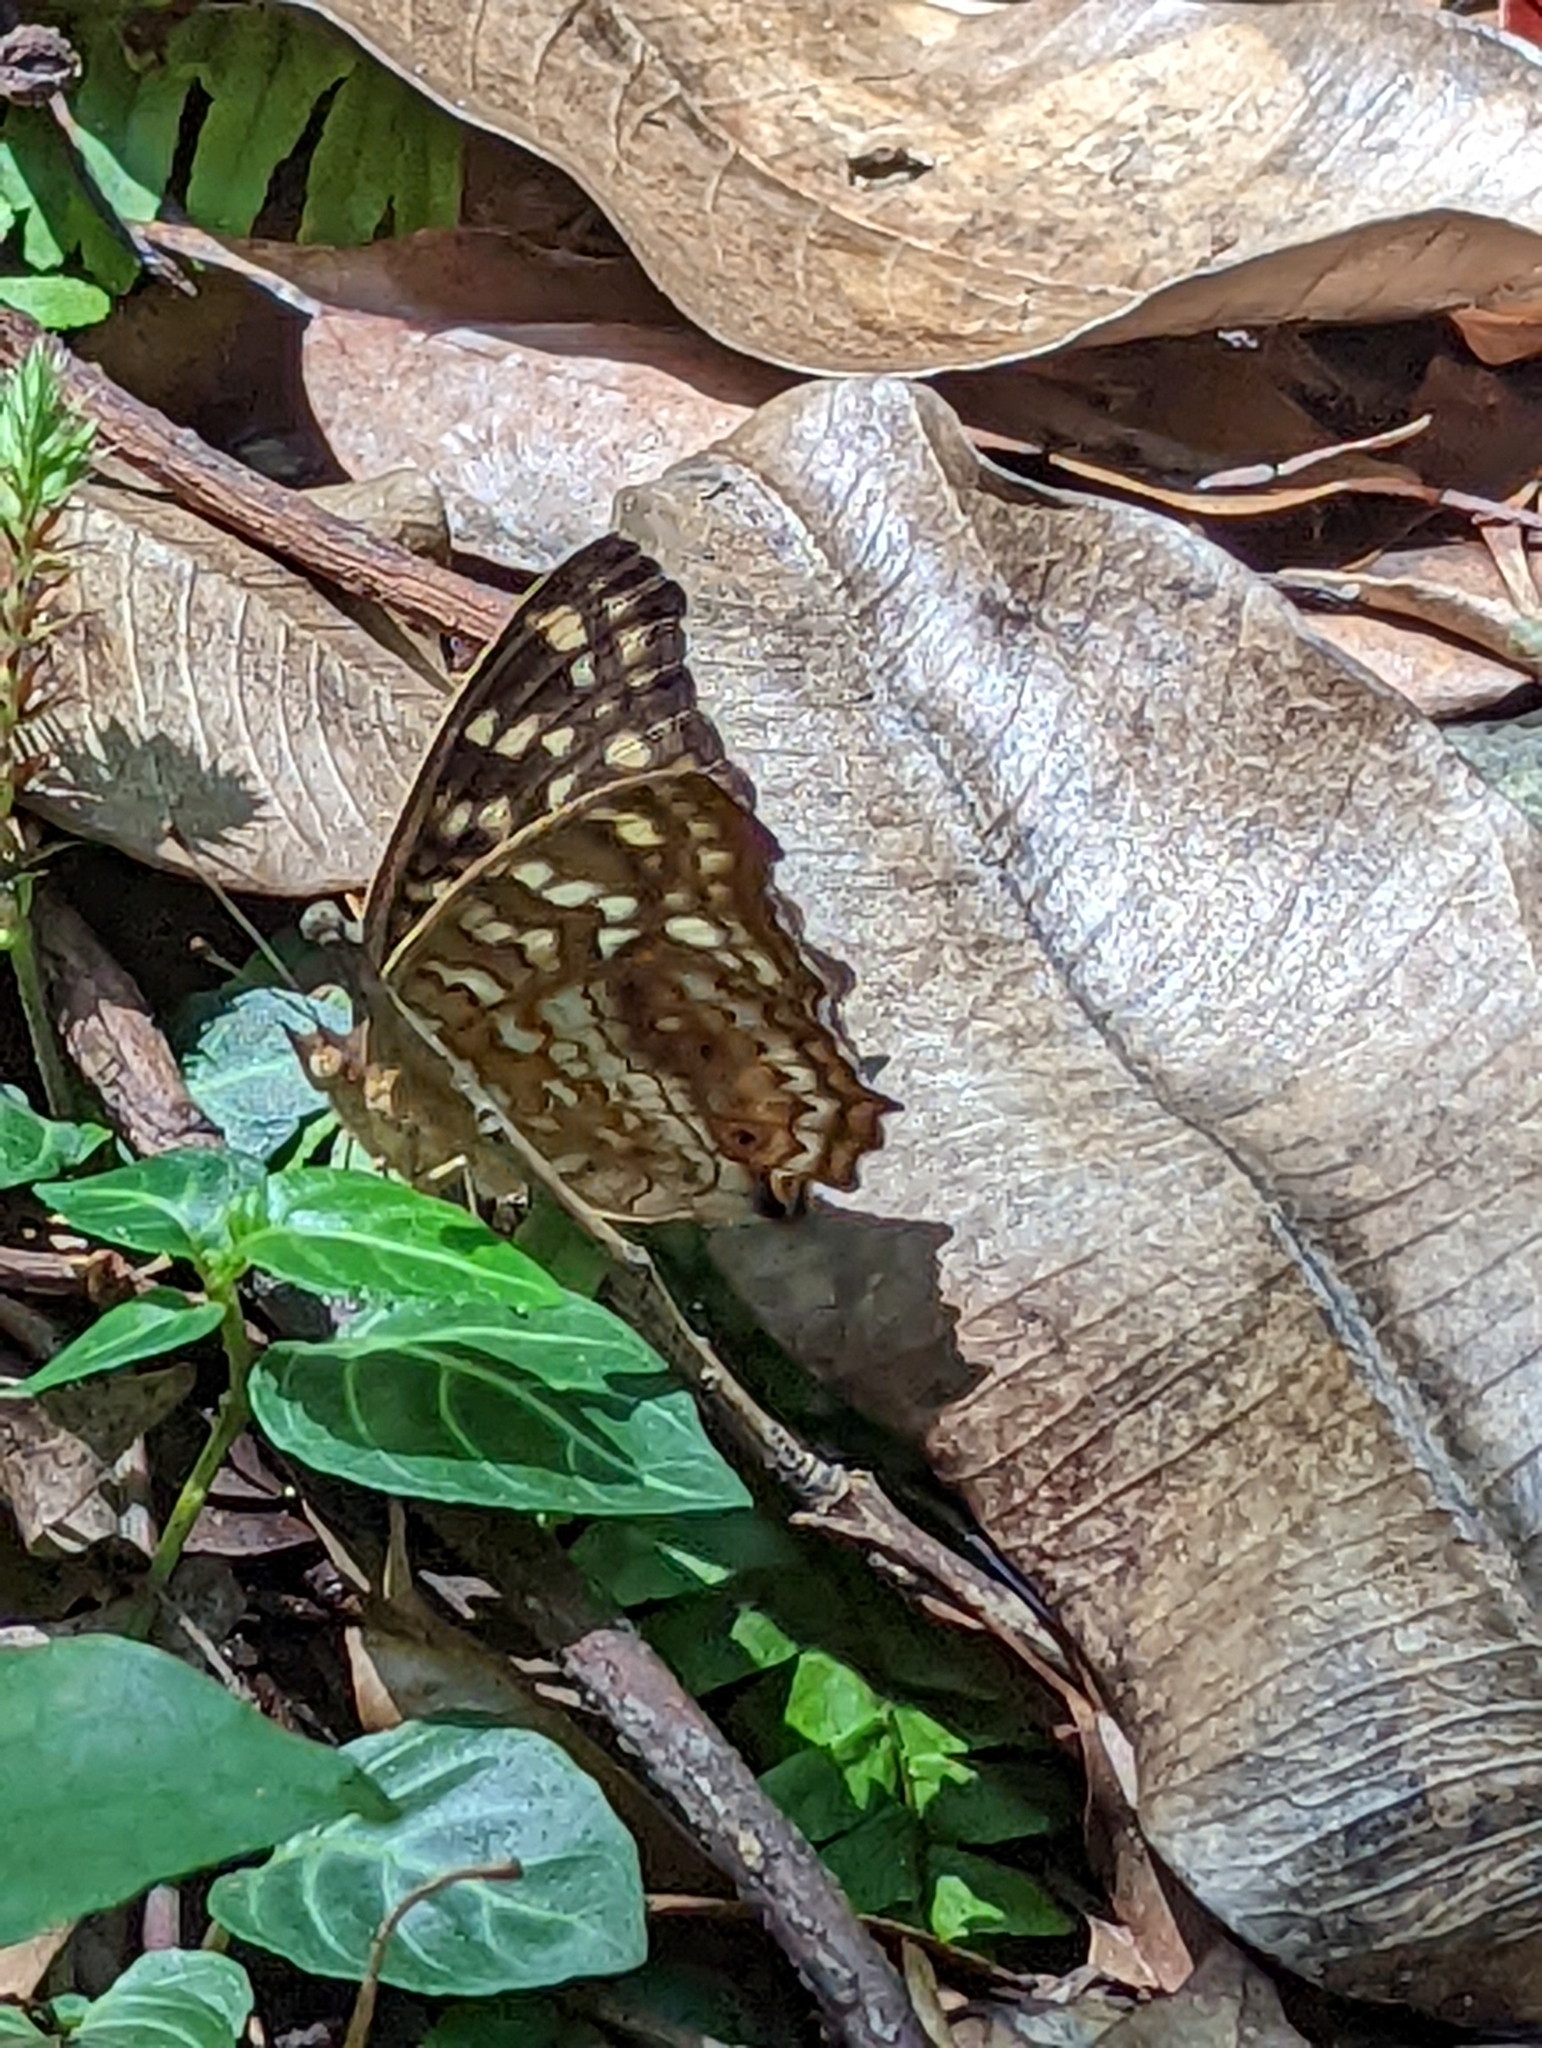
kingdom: Animalia
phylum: Arthropoda
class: Insecta
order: Lepidoptera
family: Nymphalidae
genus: Junonia
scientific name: Junonia lemonias
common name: Lemon pansy
